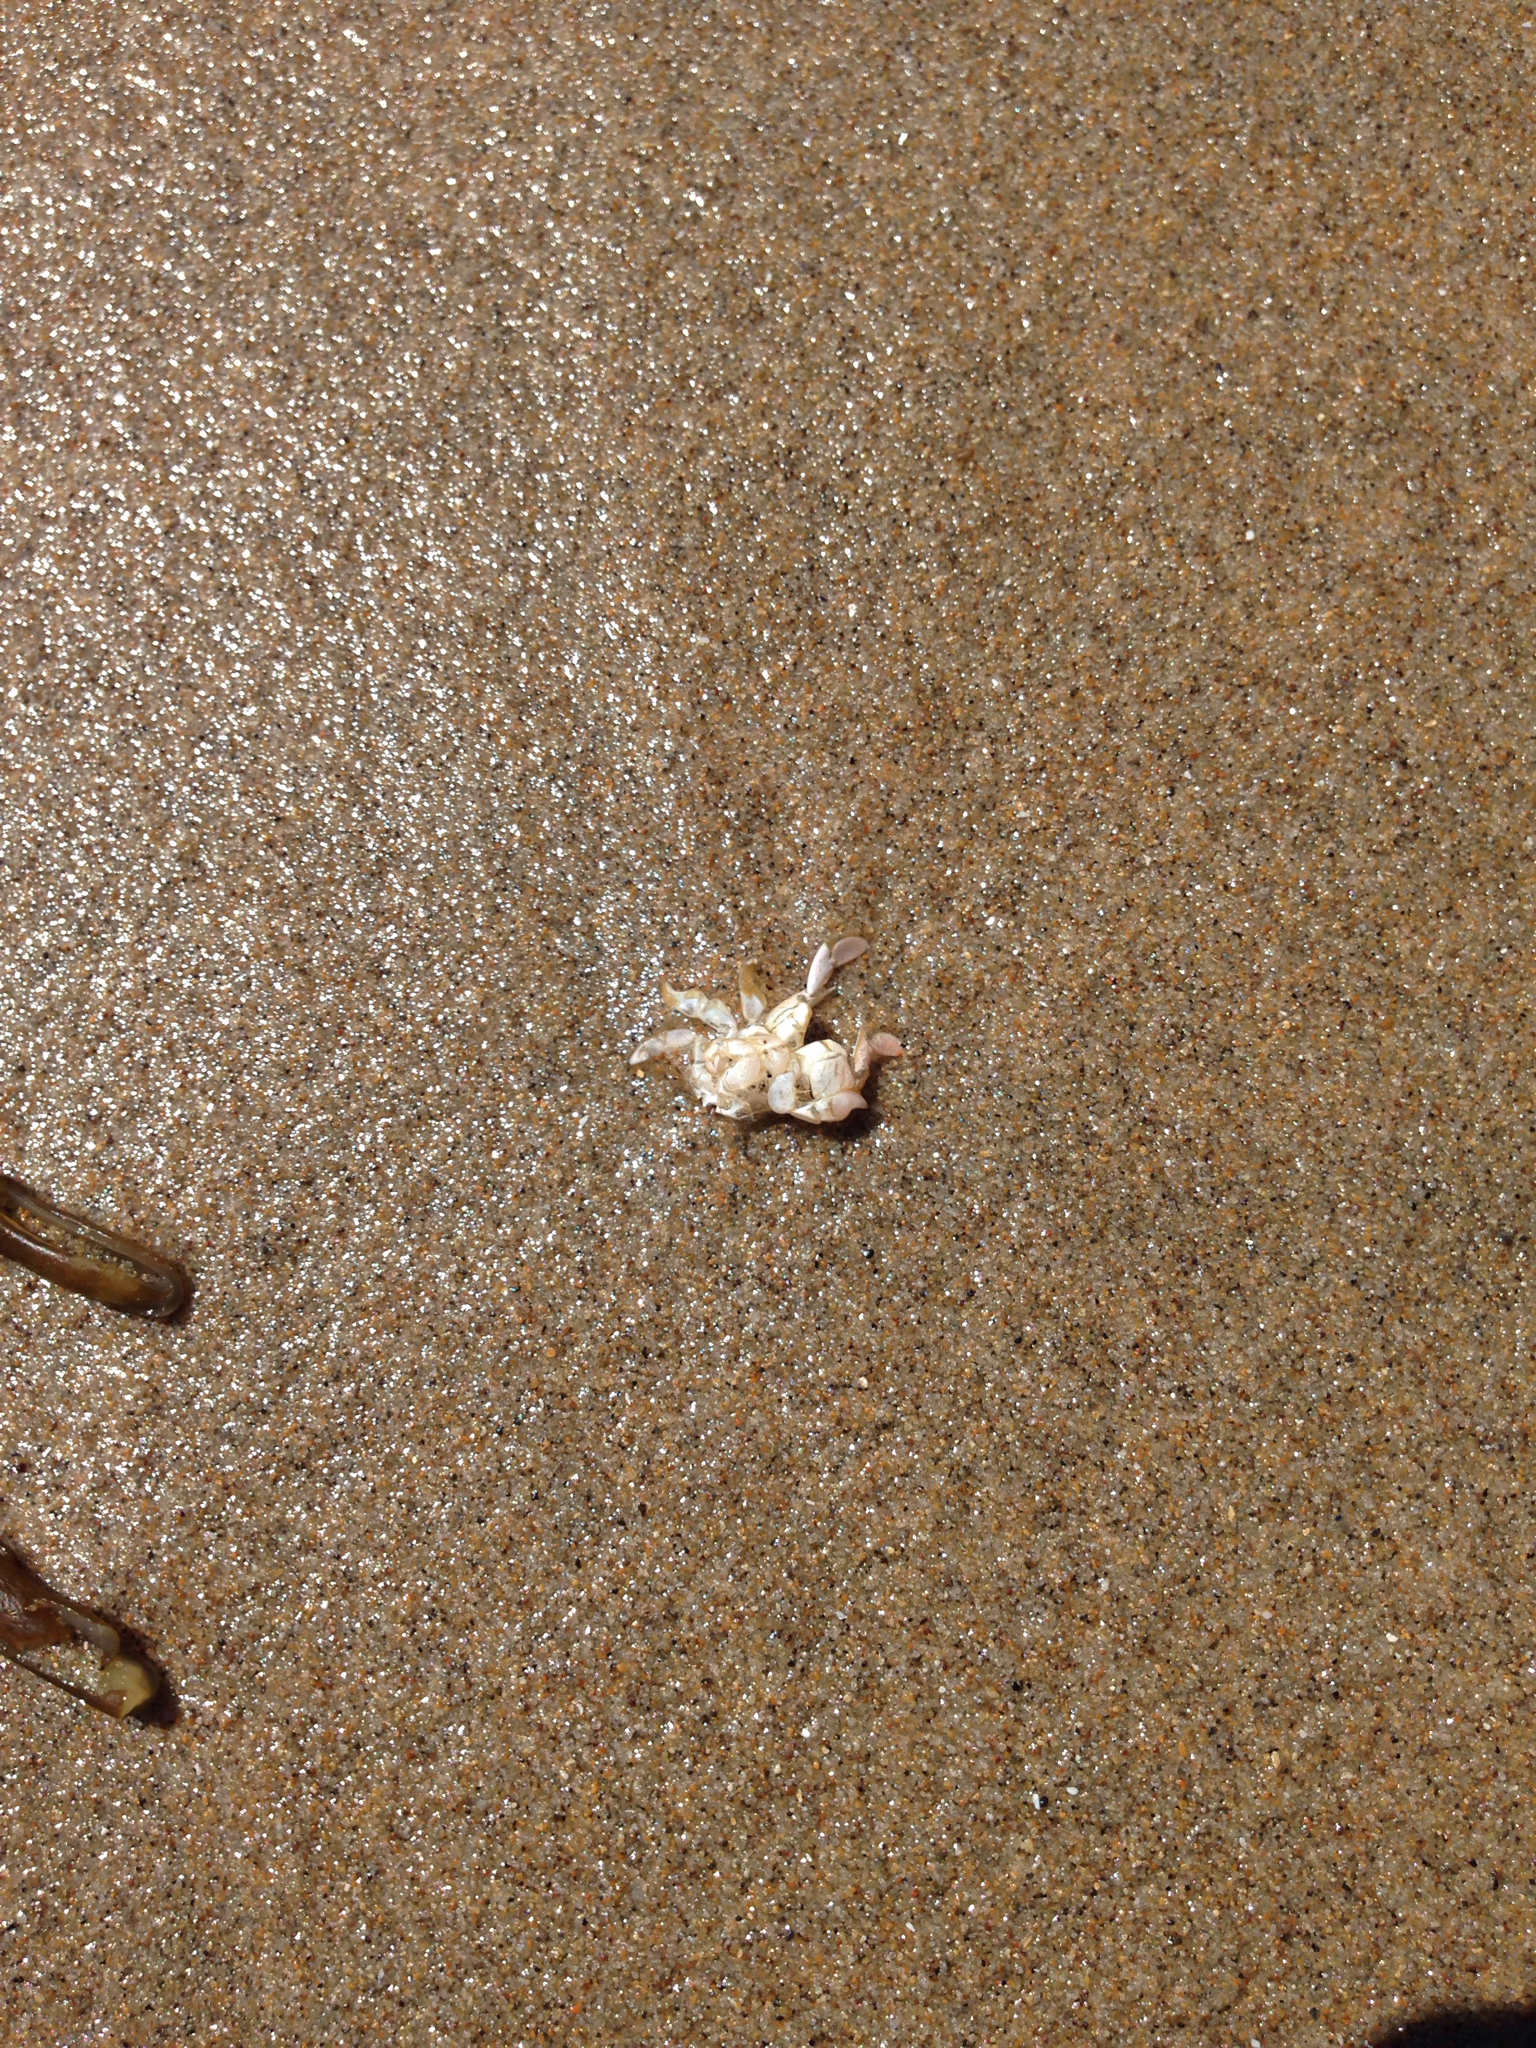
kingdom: Animalia
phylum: Arthropoda
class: Malacostraca
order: Decapoda
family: Hippidae
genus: Emerita
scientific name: Emerita analoga
